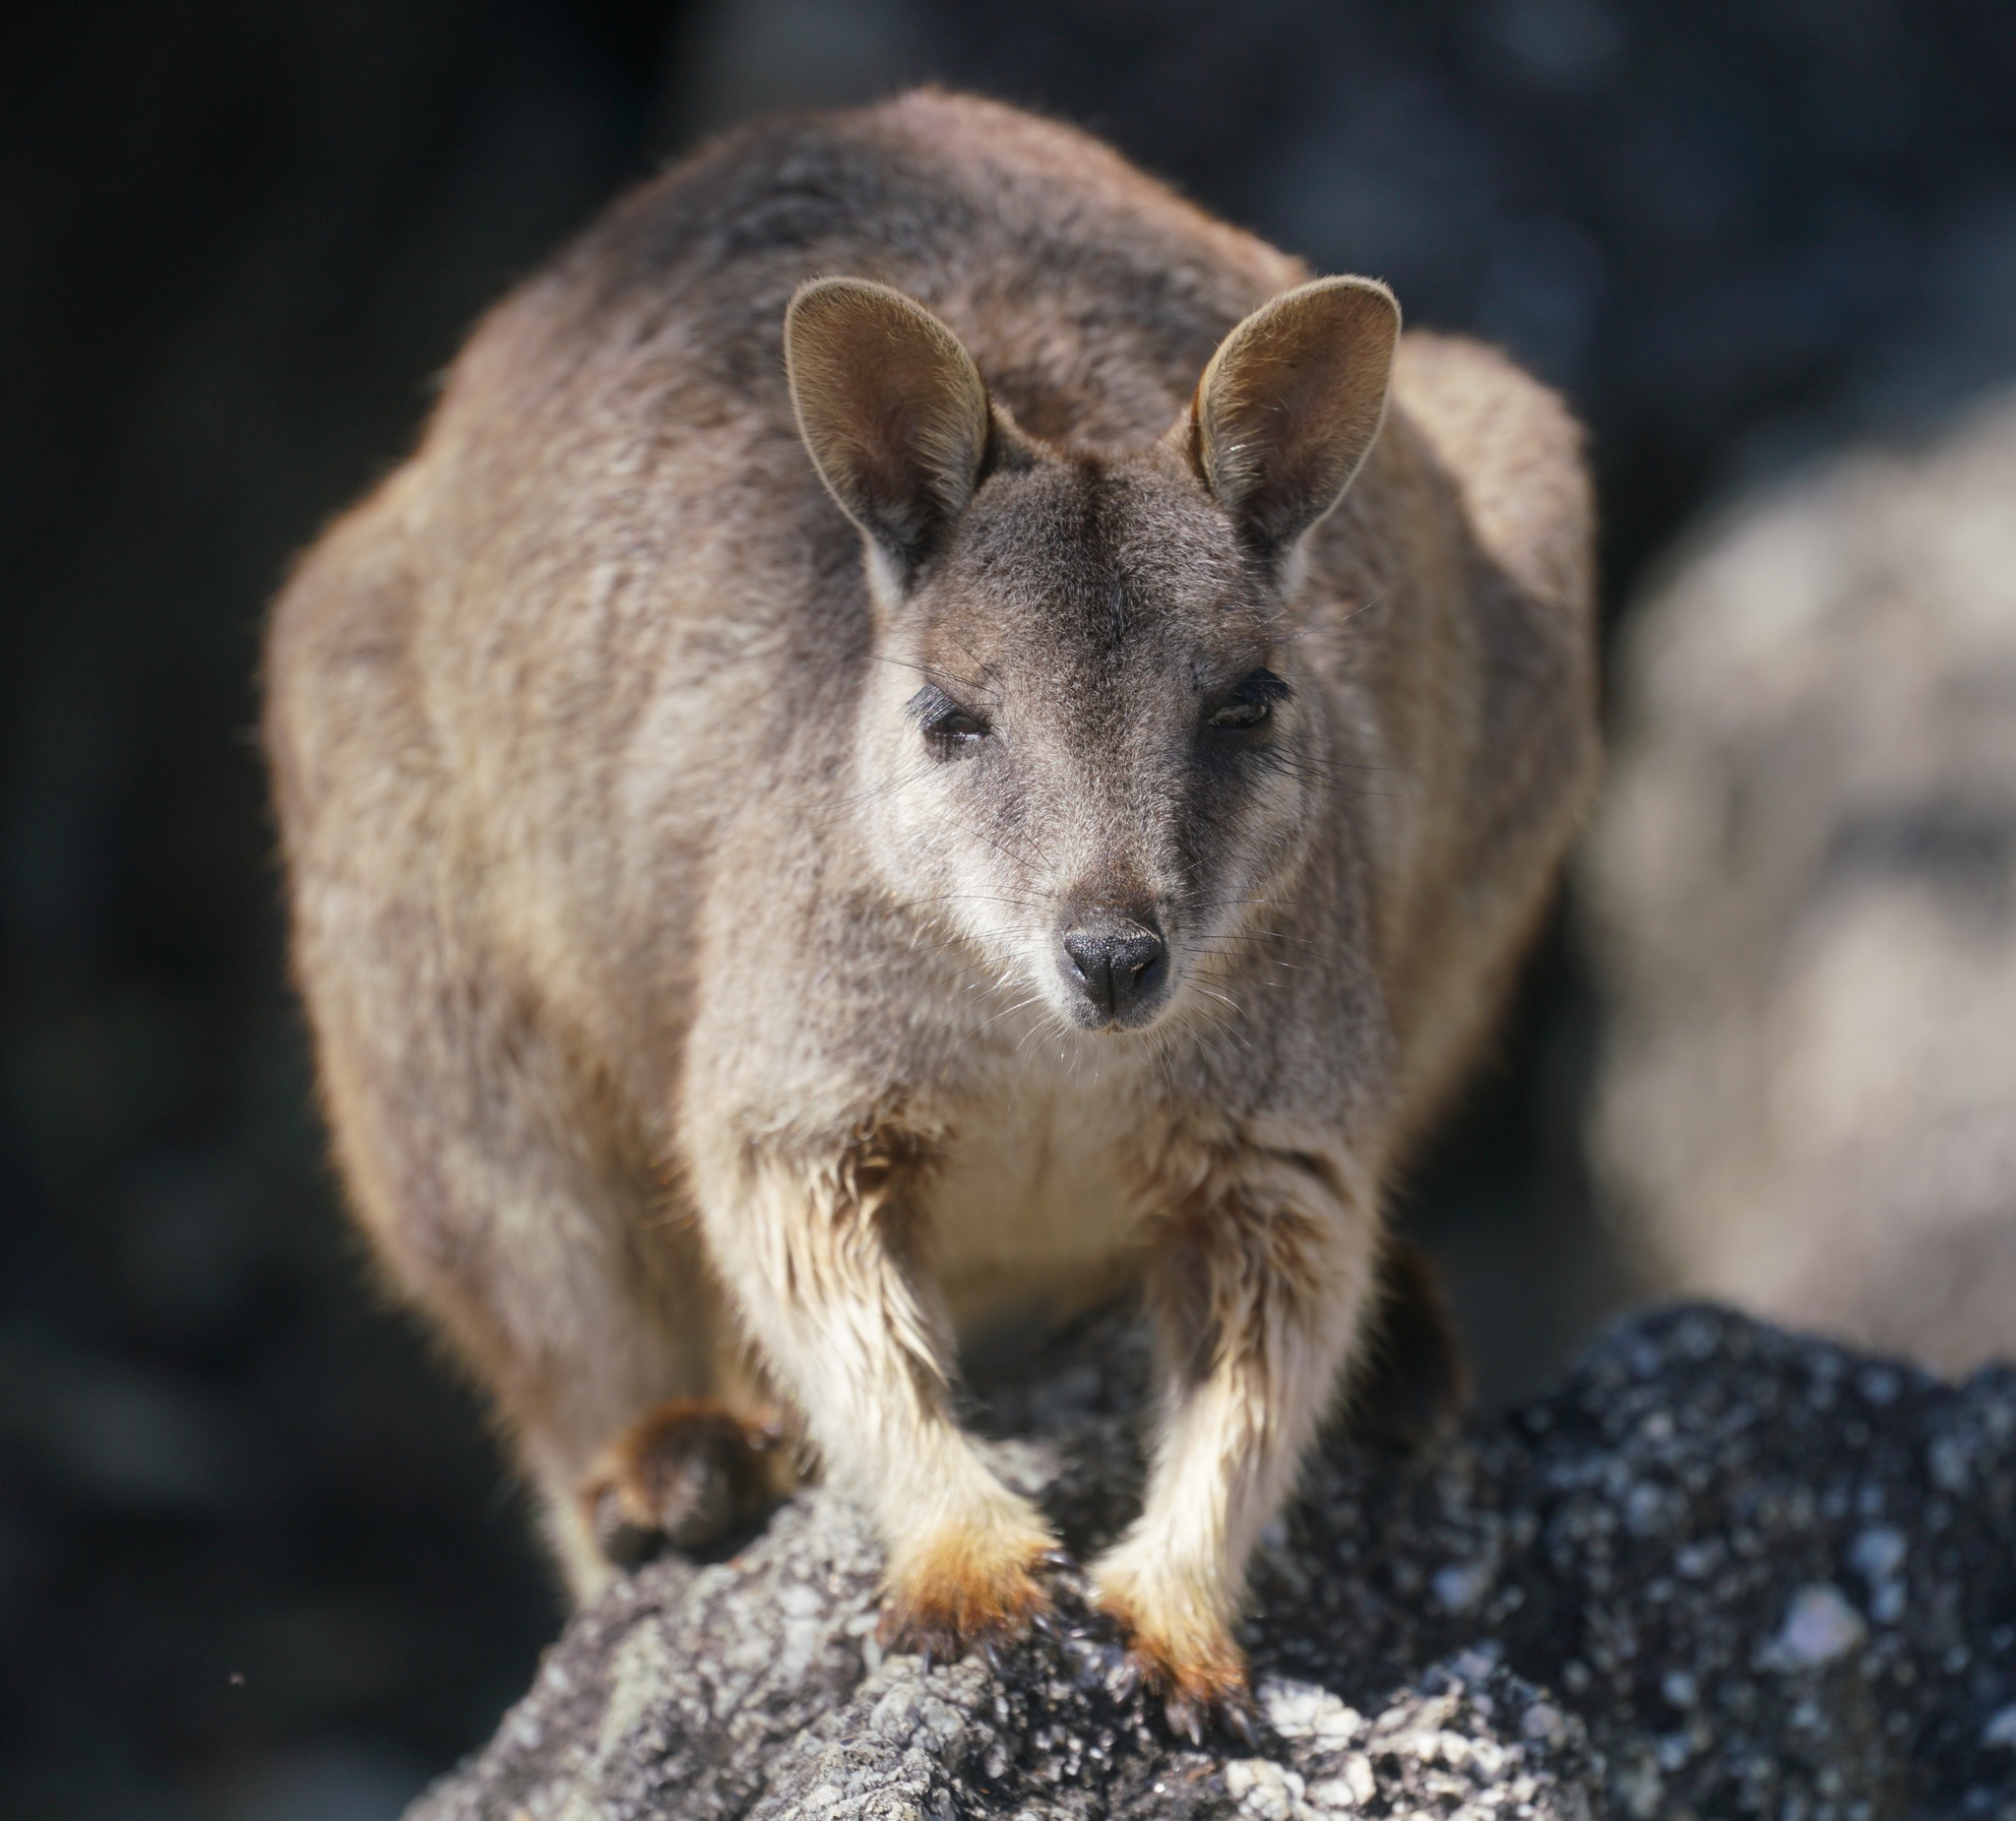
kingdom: Animalia
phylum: Chordata
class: Mammalia
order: Diprotodontia
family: Macropodidae
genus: Petrogale
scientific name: Petrogale mareeba
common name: Mareeba rock-wallaby
